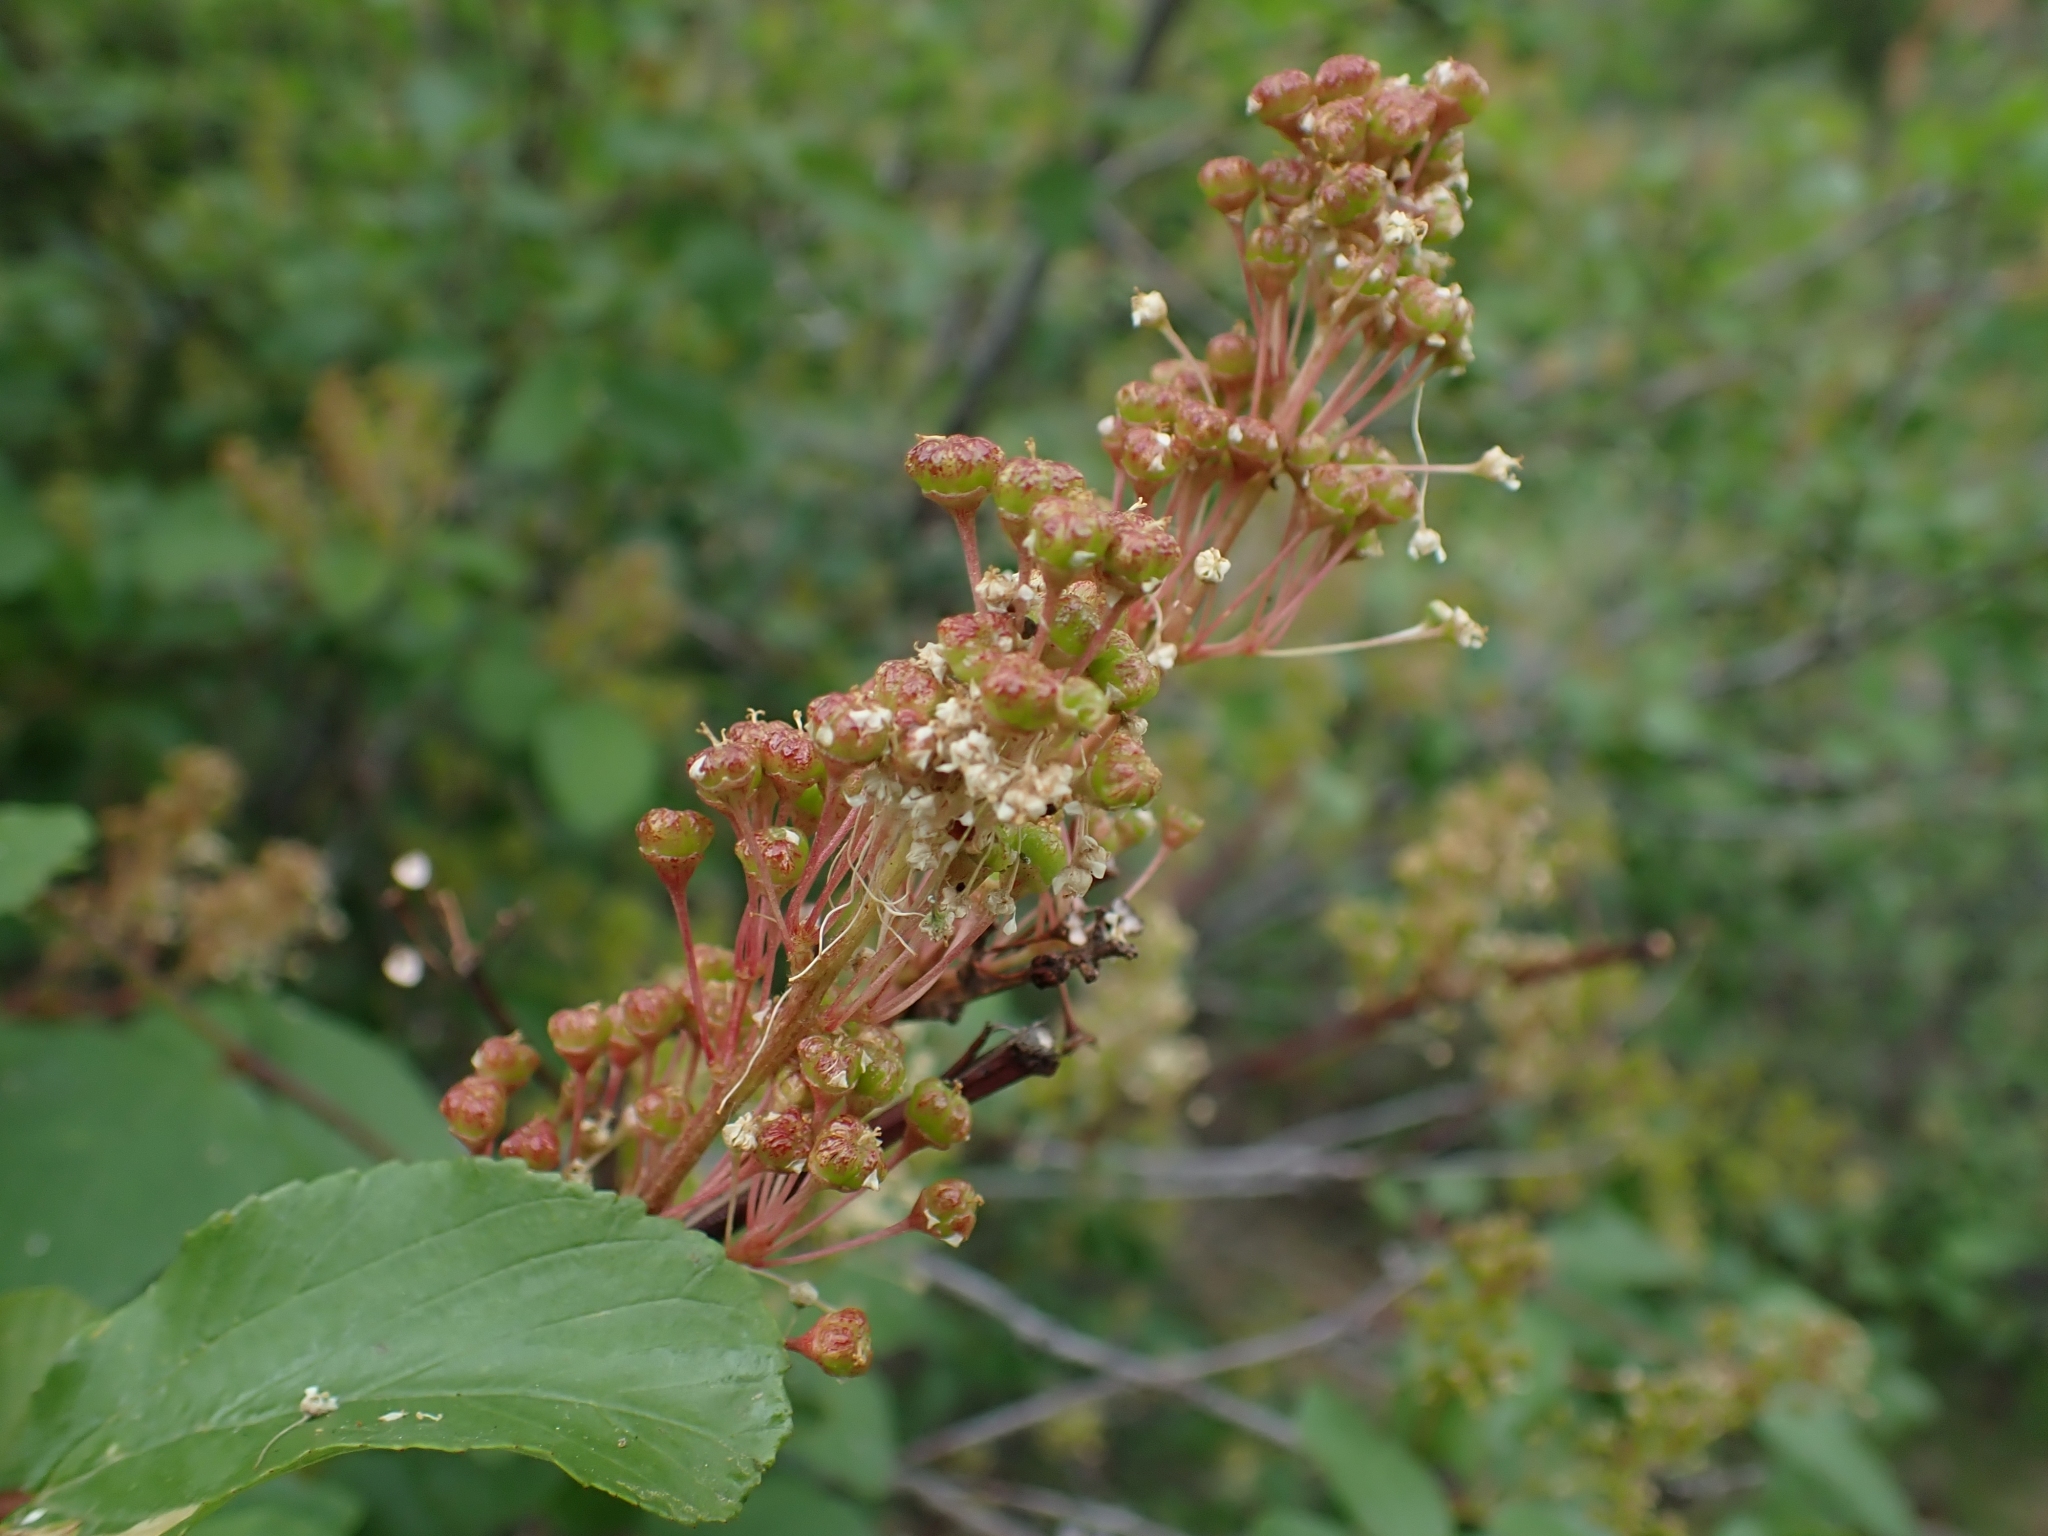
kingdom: Plantae
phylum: Tracheophyta
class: Magnoliopsida
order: Rosales
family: Rhamnaceae
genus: Ceanothus
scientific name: Ceanothus sanguineus
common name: Teatree
